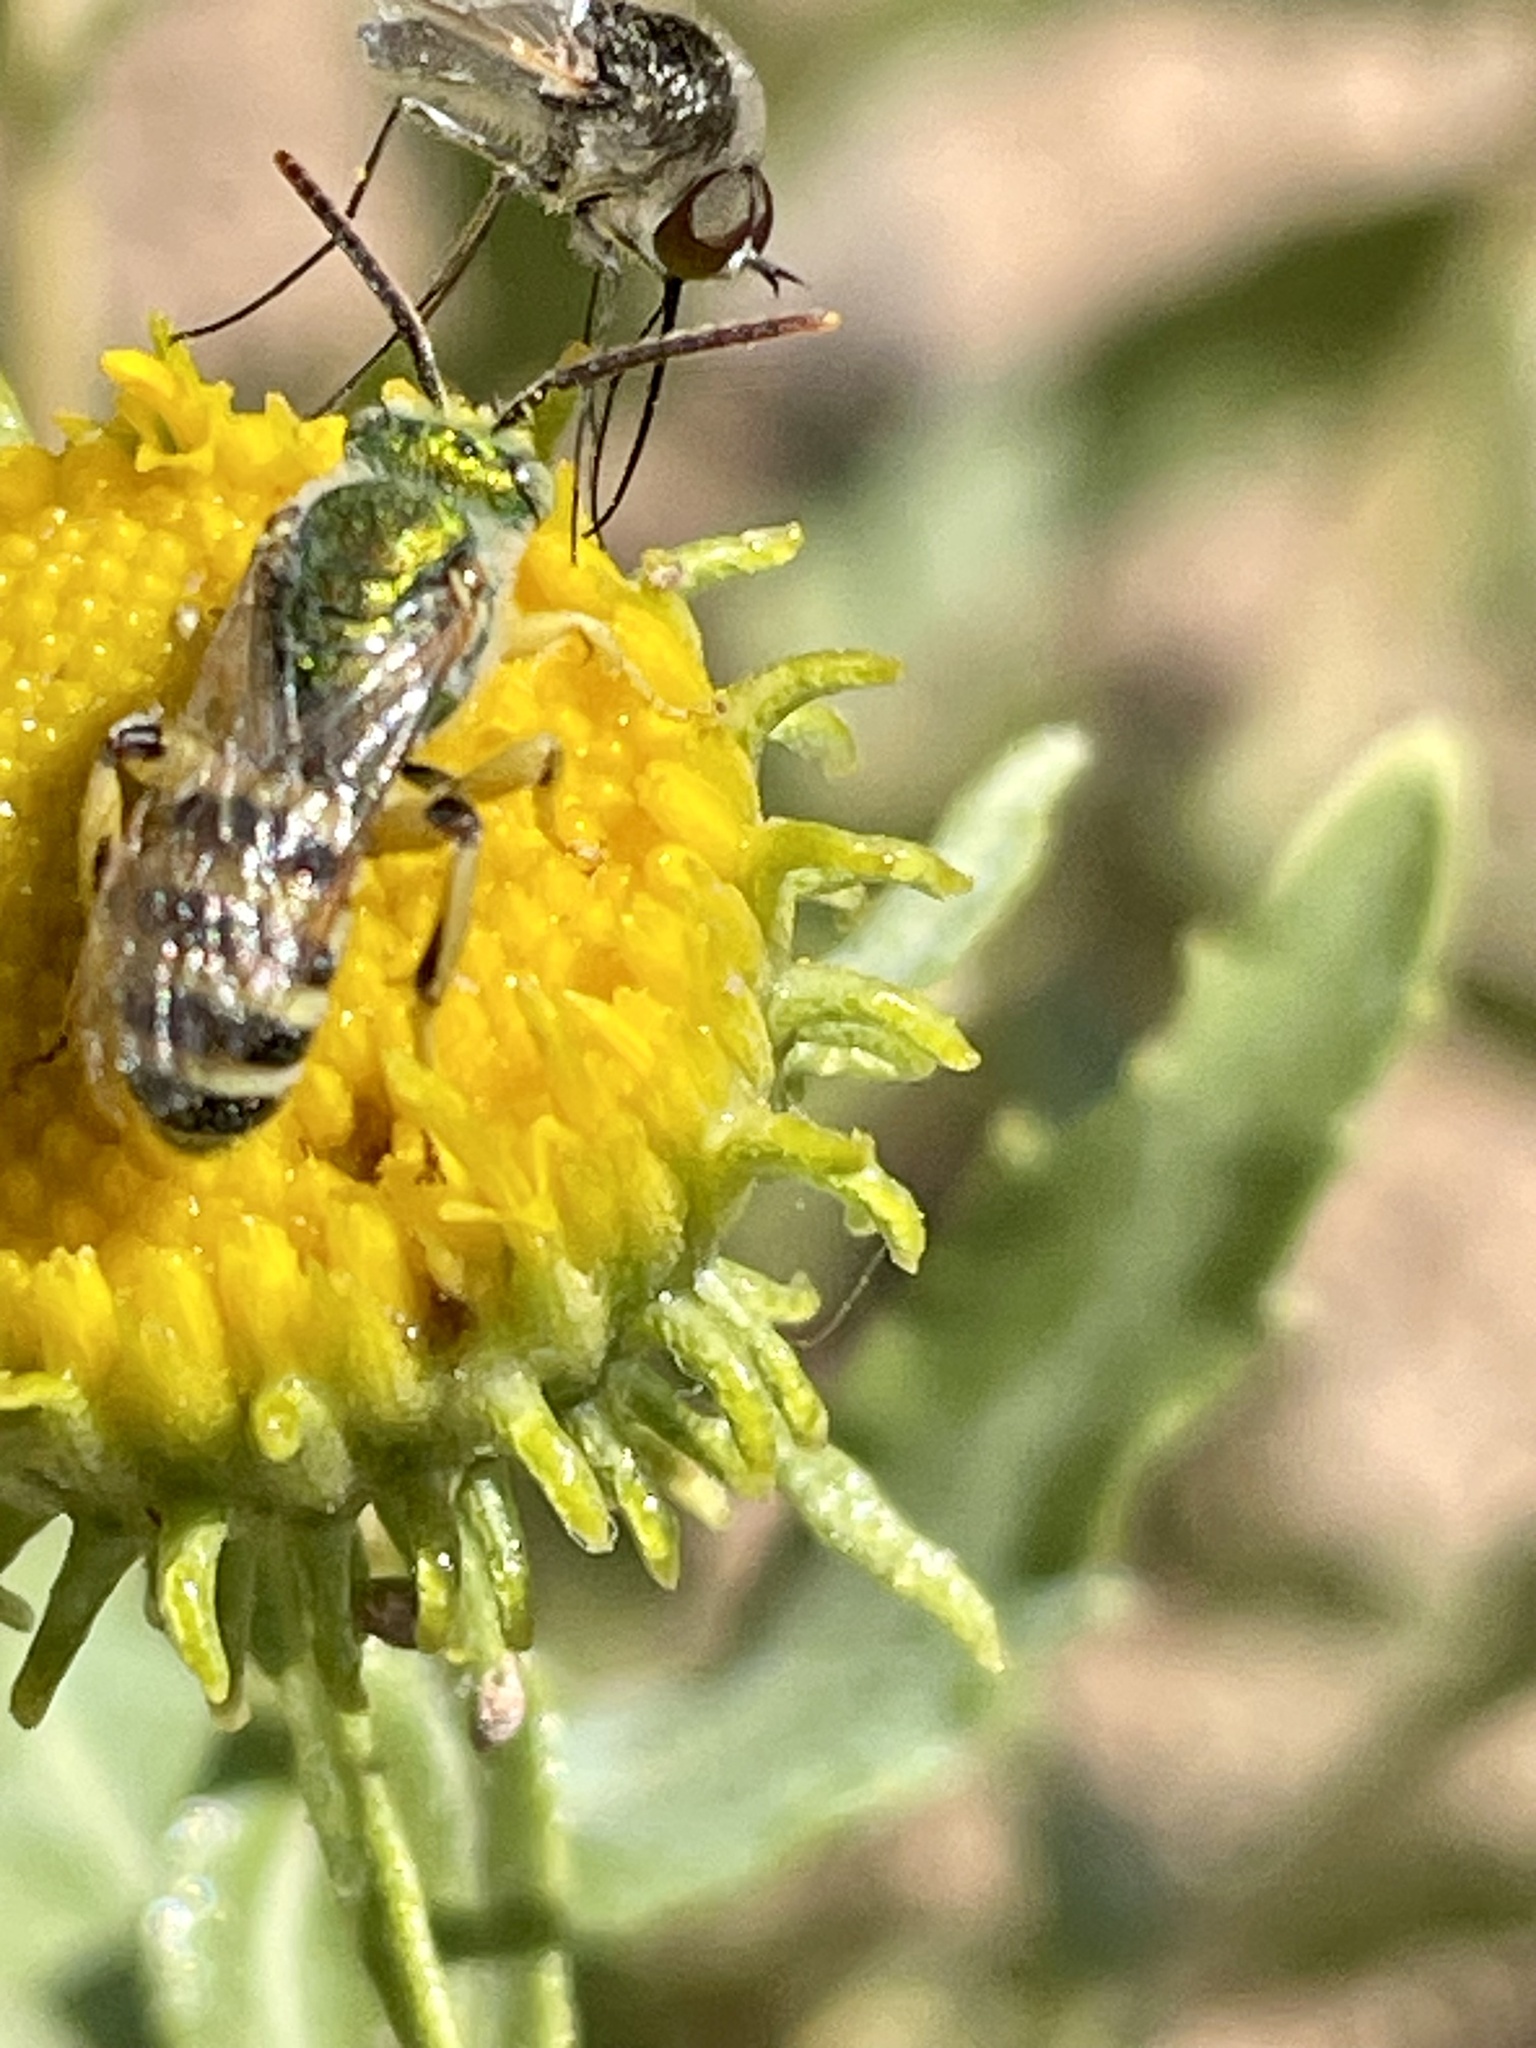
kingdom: Plantae
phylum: Tracheophyta
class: Magnoliopsida
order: Asterales
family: Asteraceae
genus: Grindelia
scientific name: Grindelia nuda
